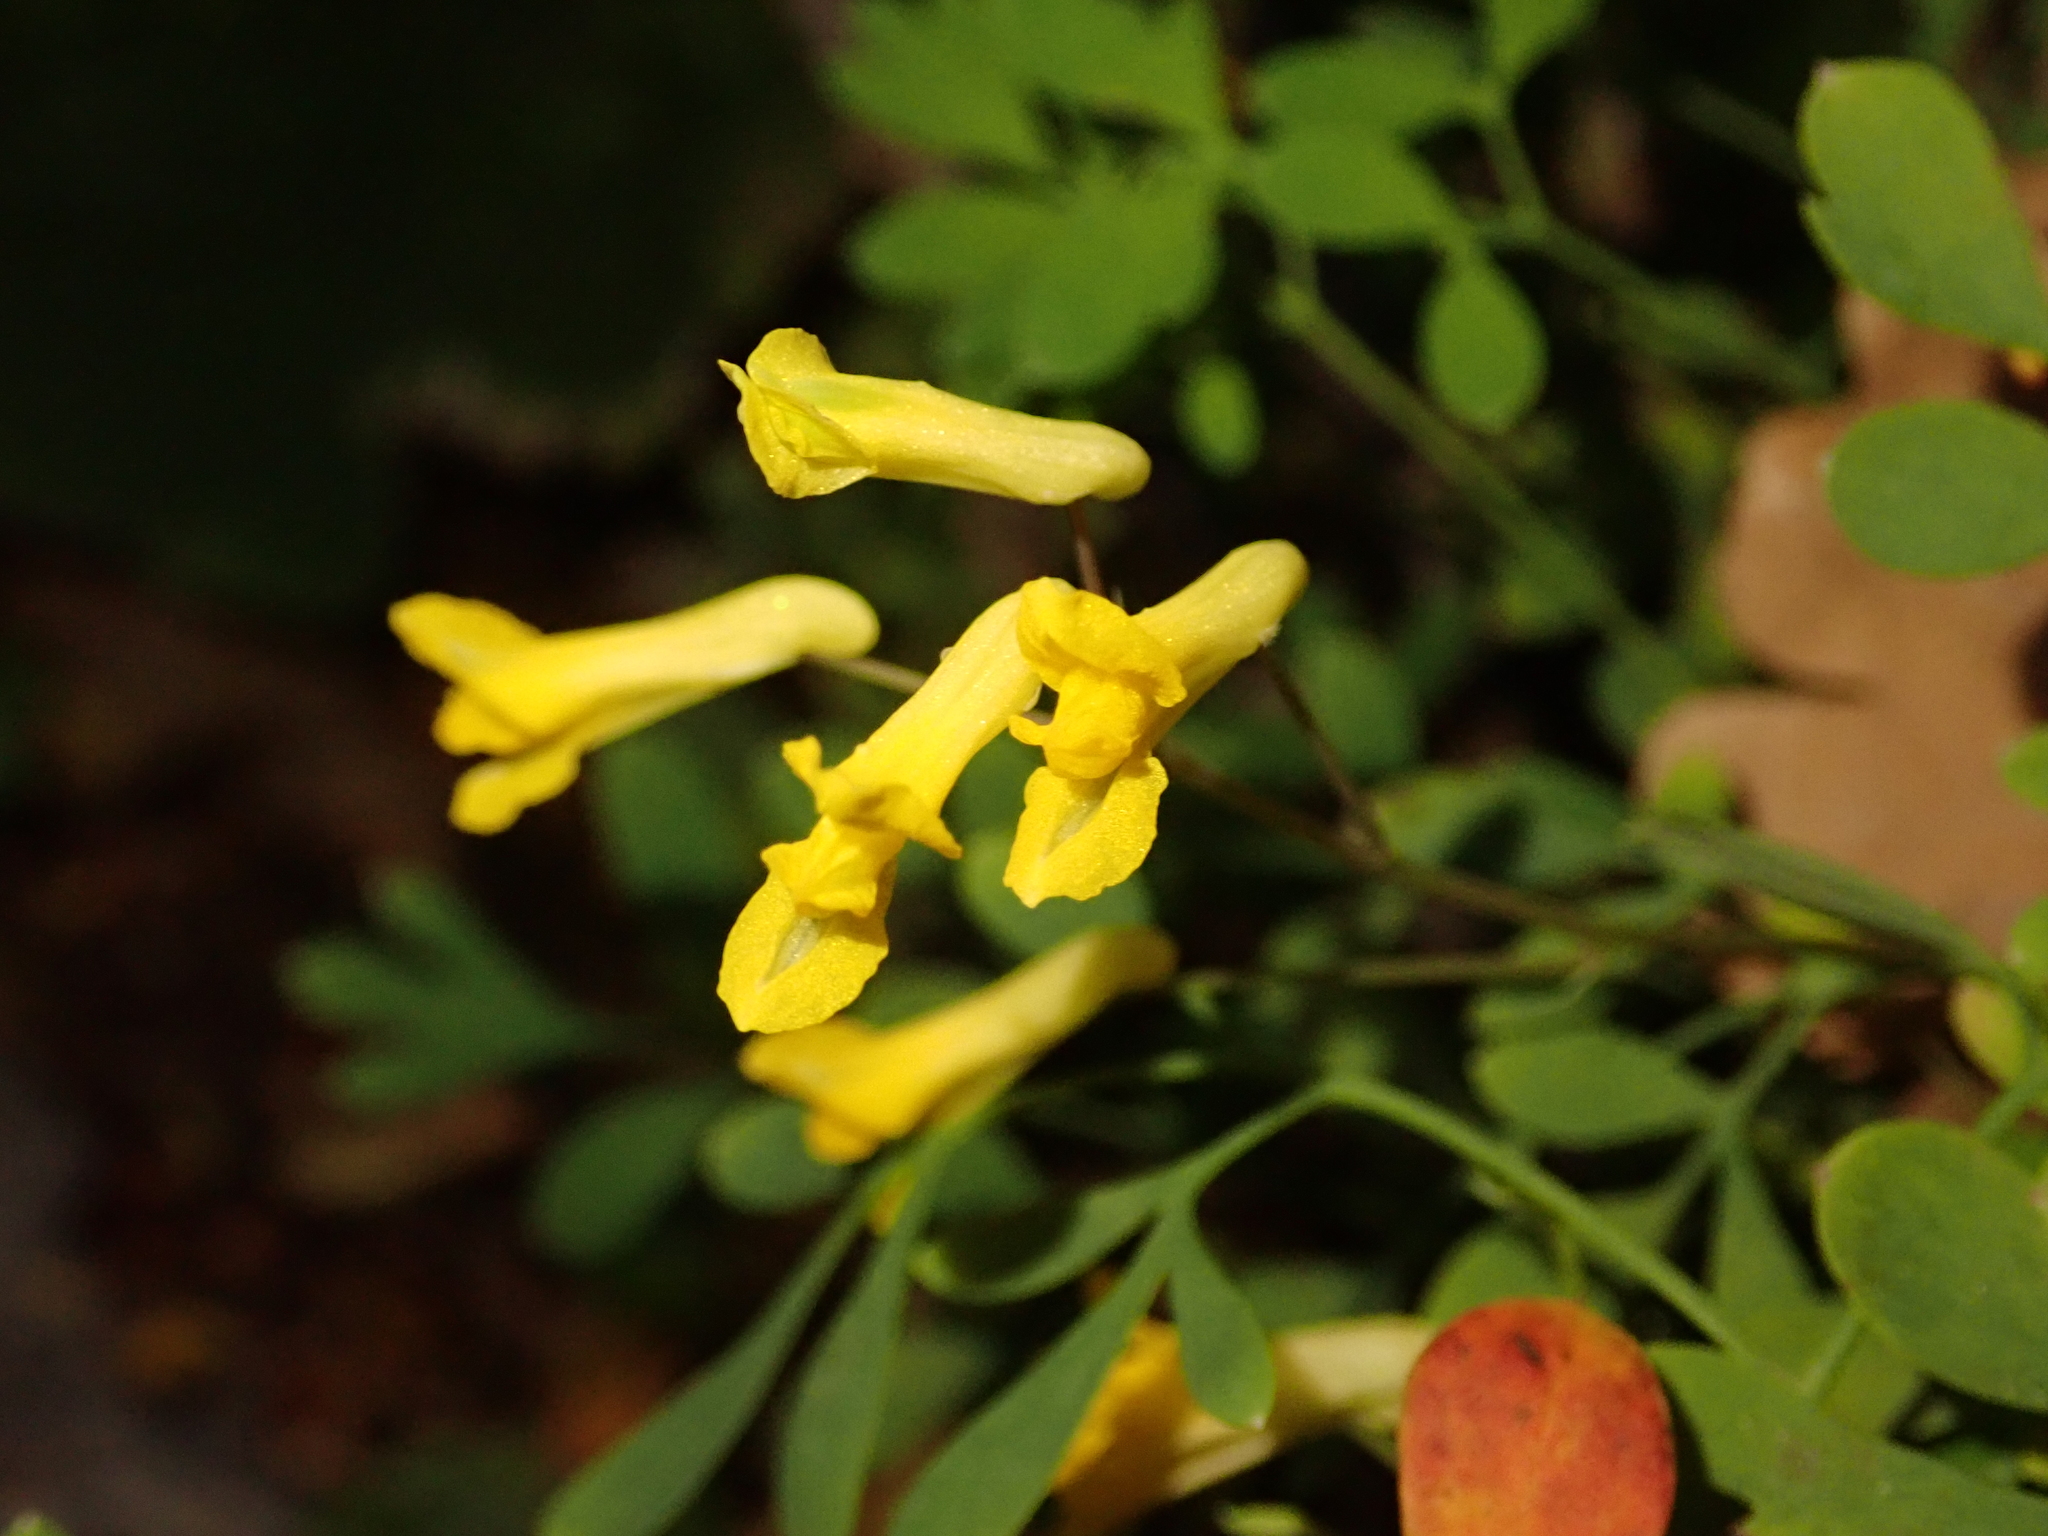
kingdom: Plantae
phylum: Tracheophyta
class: Magnoliopsida
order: Ranunculales
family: Papaveraceae
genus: Pseudofumaria
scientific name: Pseudofumaria lutea
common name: Yellow corydalis
